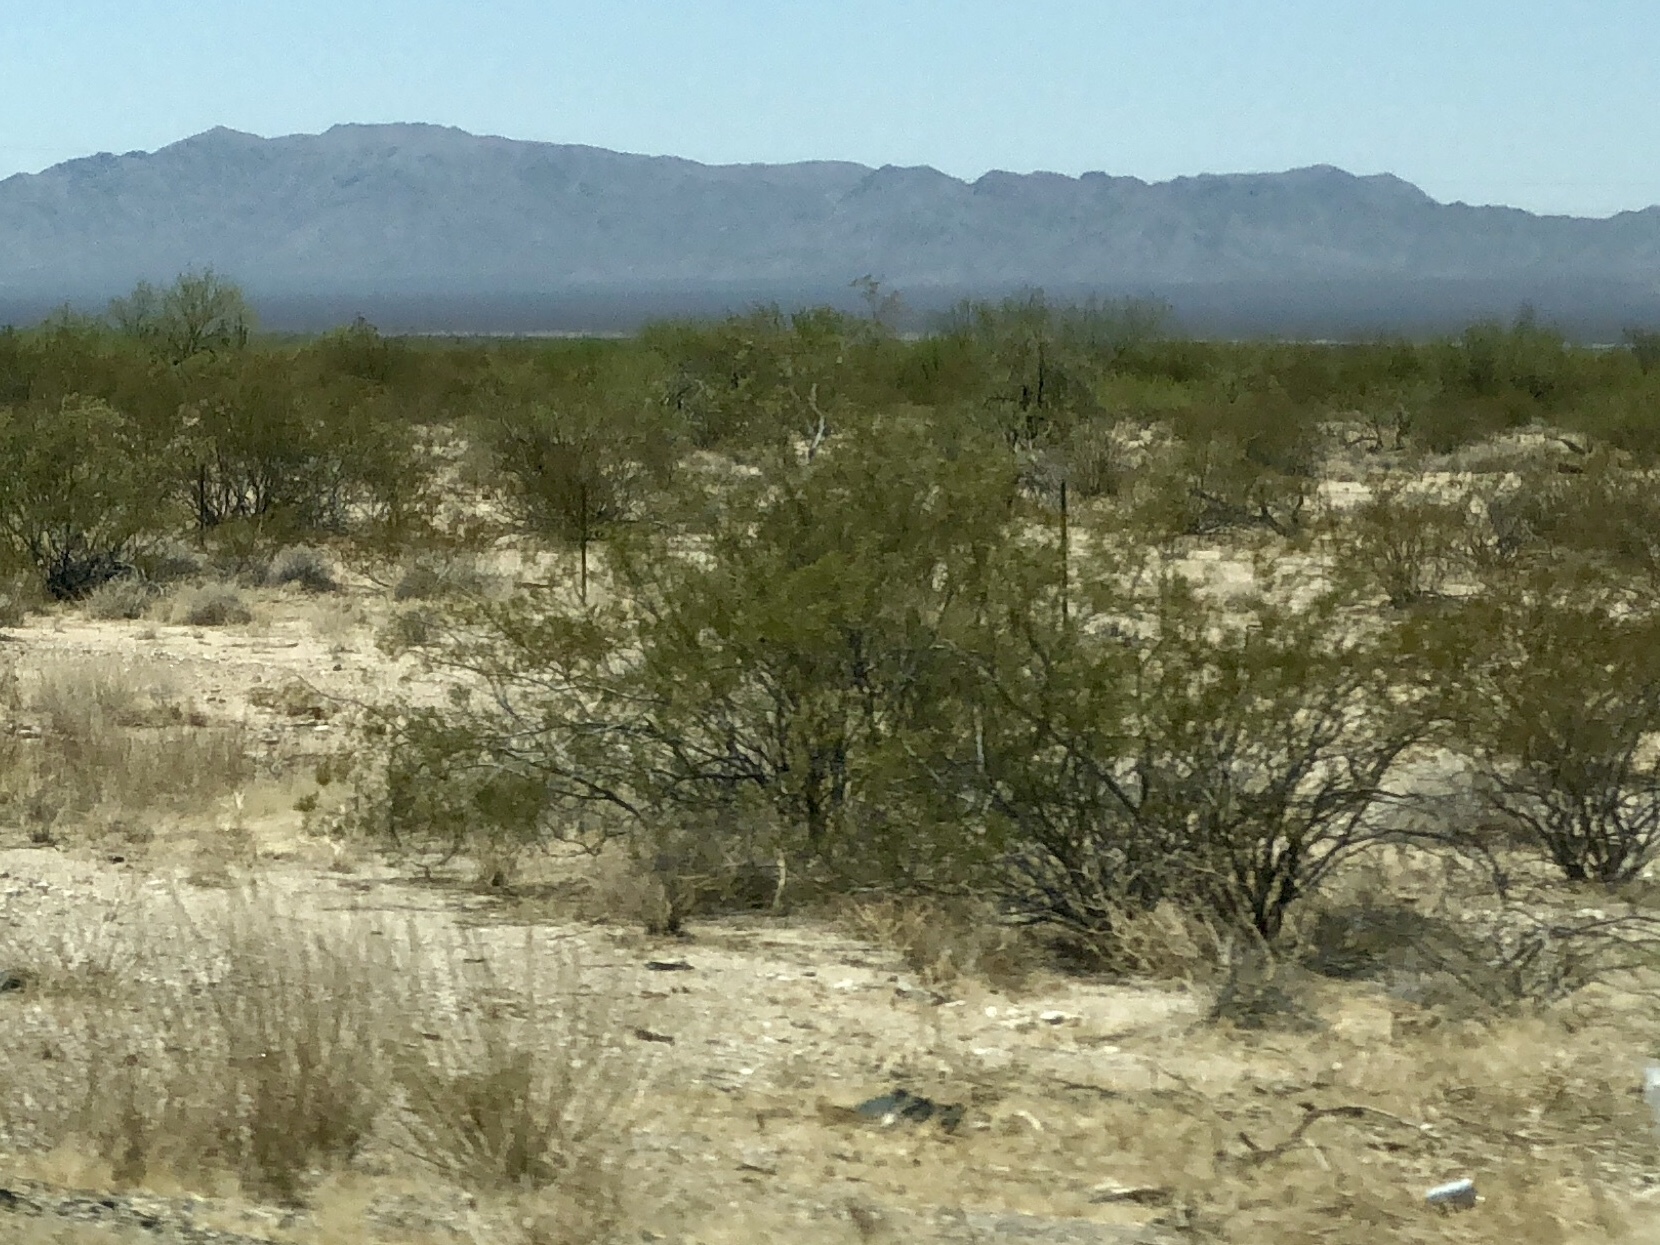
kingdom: Plantae
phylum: Tracheophyta
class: Magnoliopsida
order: Zygophyllales
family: Zygophyllaceae
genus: Larrea
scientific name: Larrea tridentata
